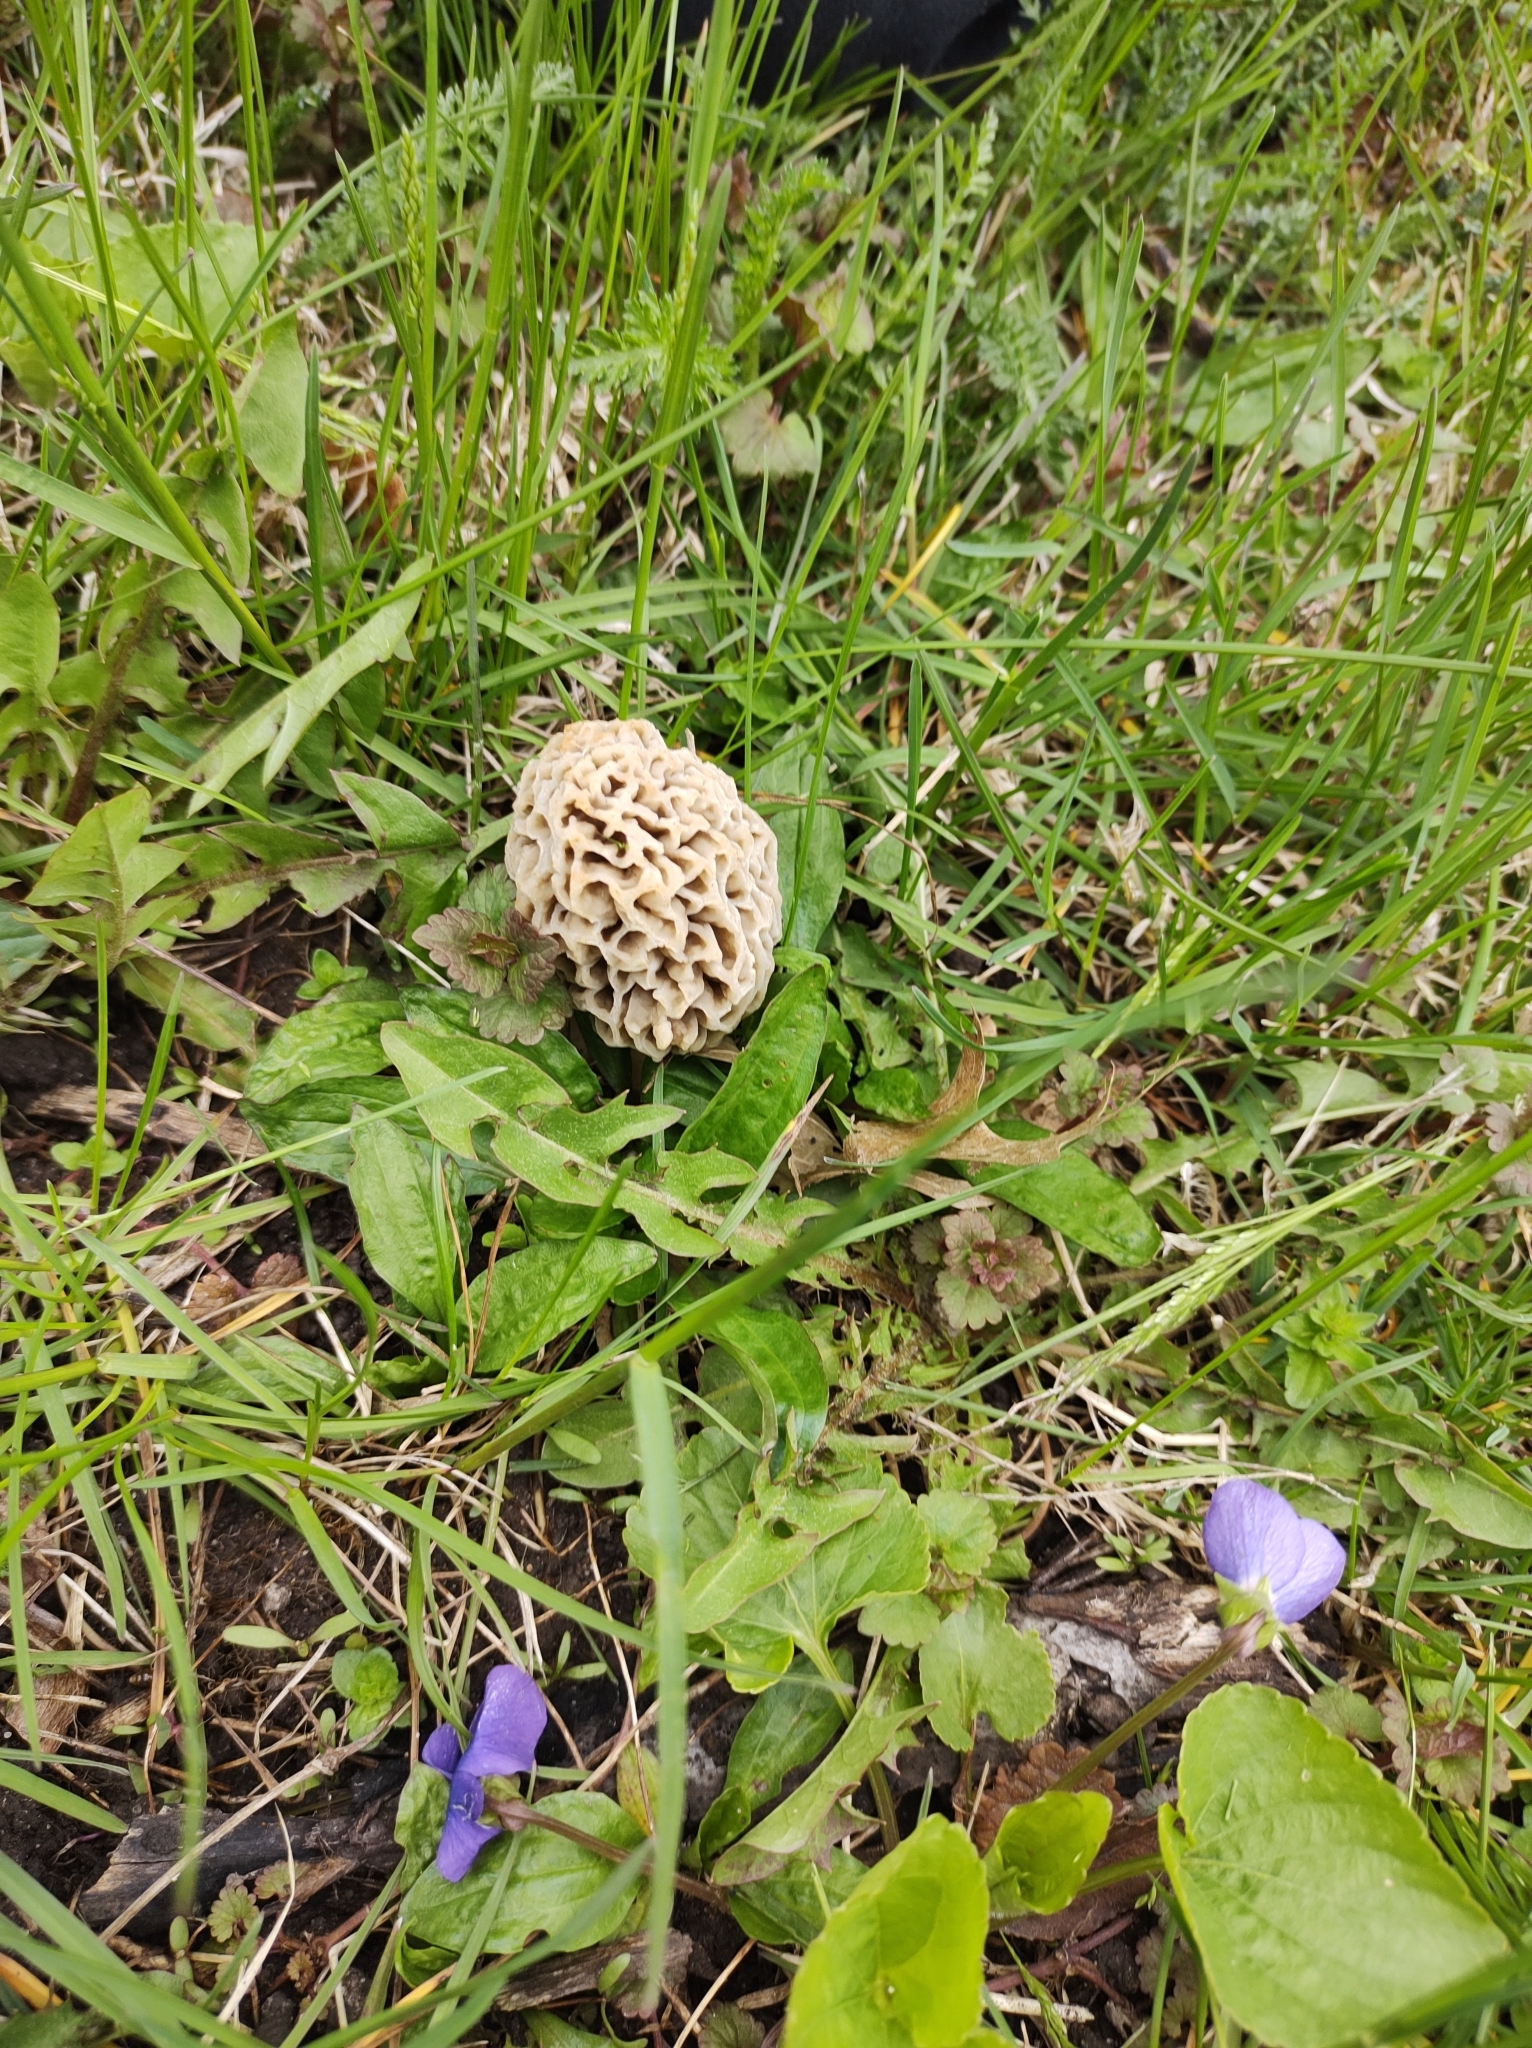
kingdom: Fungi
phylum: Ascomycota
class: Pezizomycetes
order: Pezizales
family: Morchellaceae
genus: Morchella
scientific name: Morchella americana
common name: White morel
